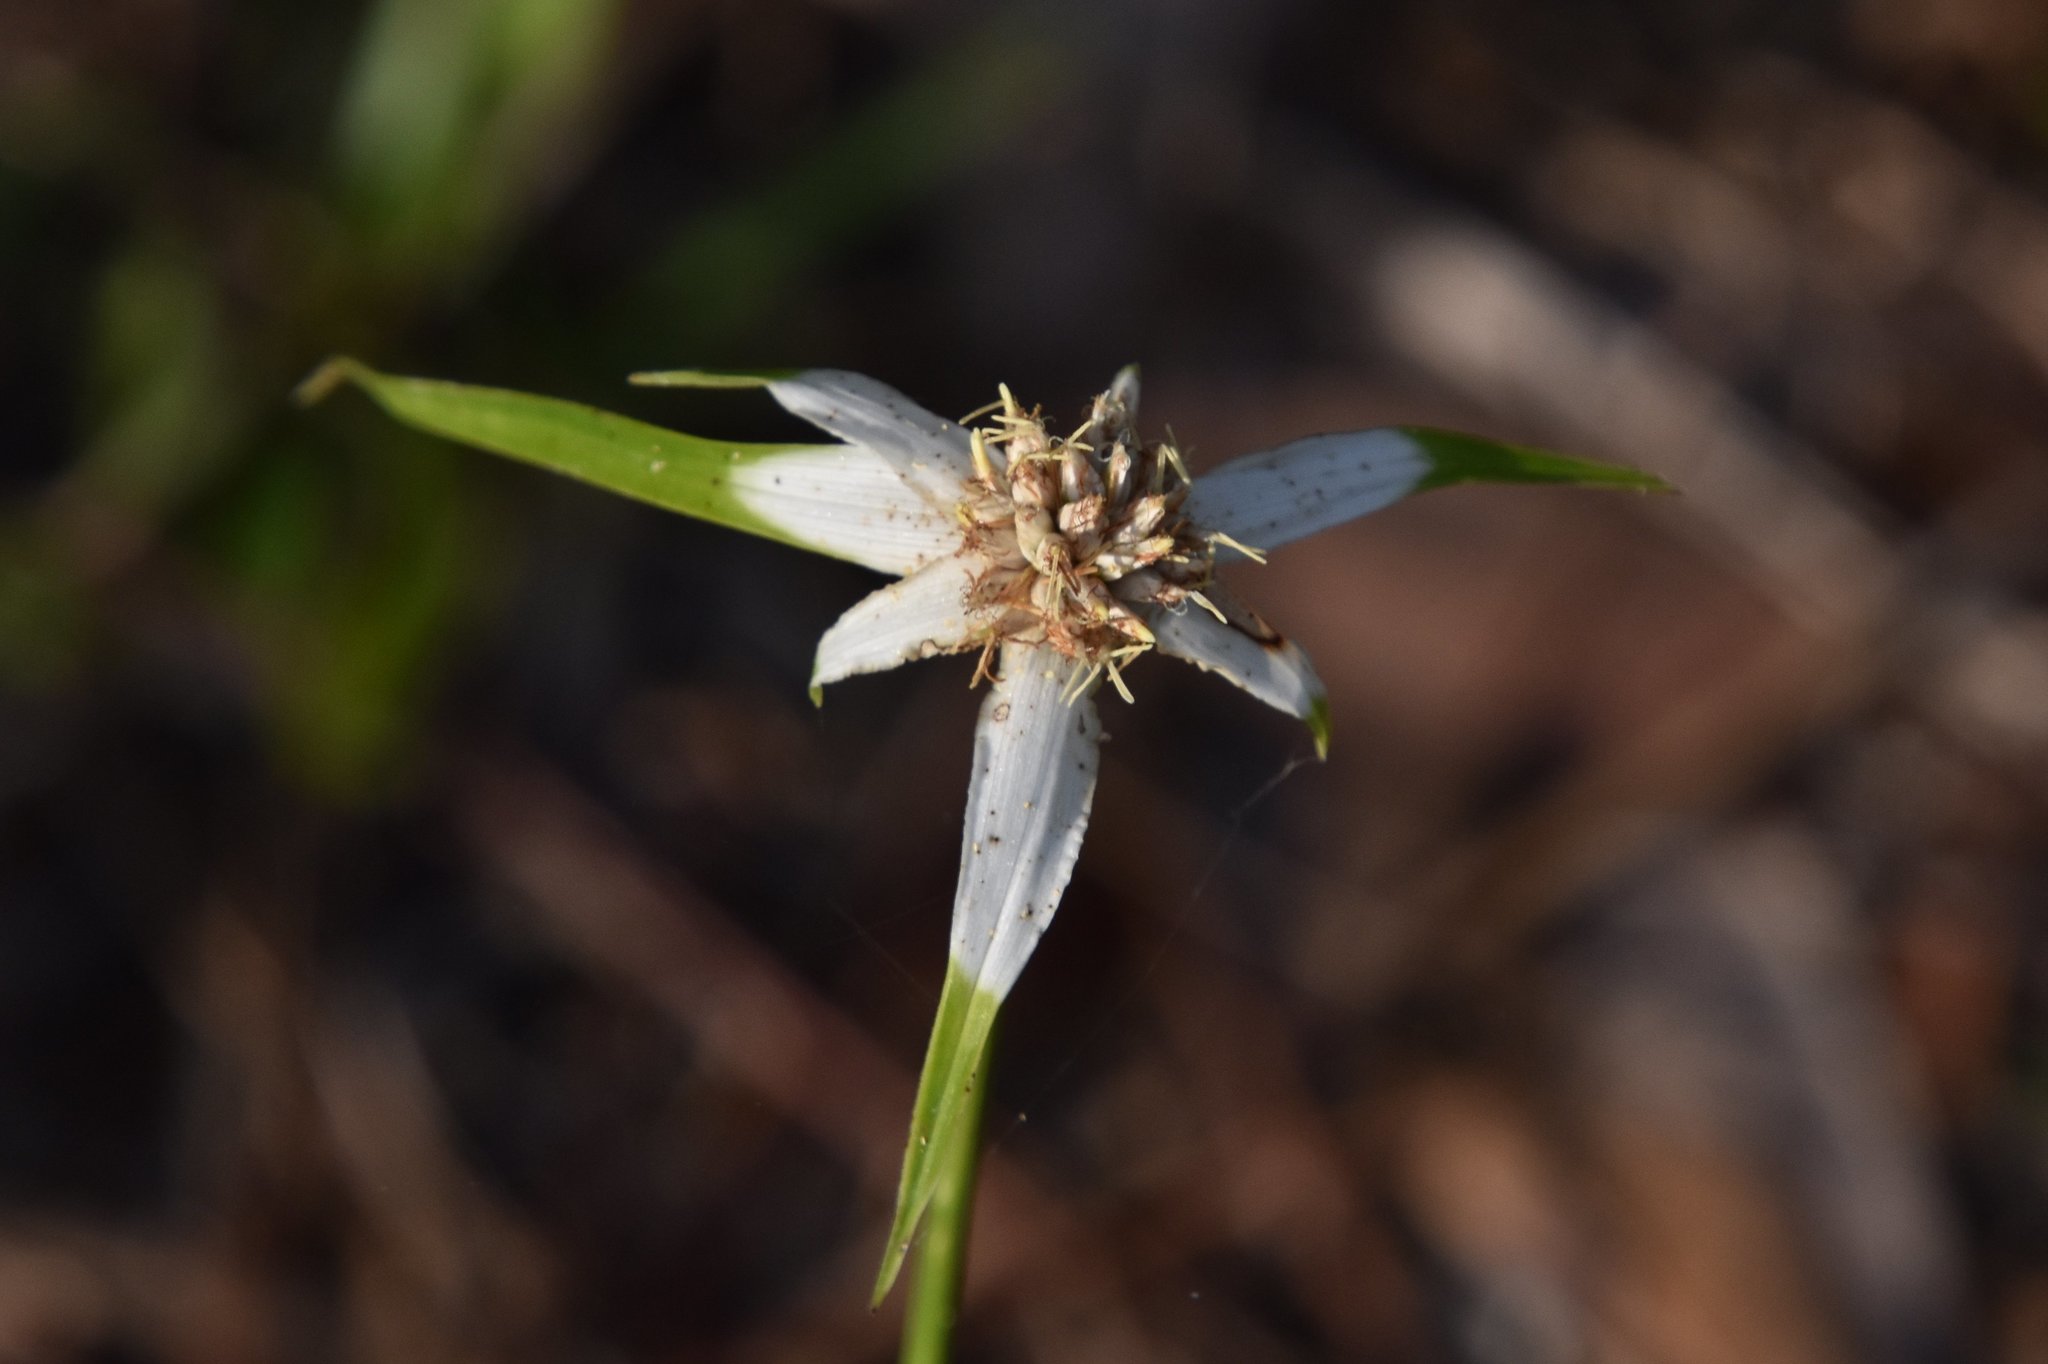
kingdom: Plantae
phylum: Tracheophyta
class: Liliopsida
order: Poales
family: Cyperaceae
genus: Rhynchospora
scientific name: Rhynchospora colorata
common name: Star sedge
